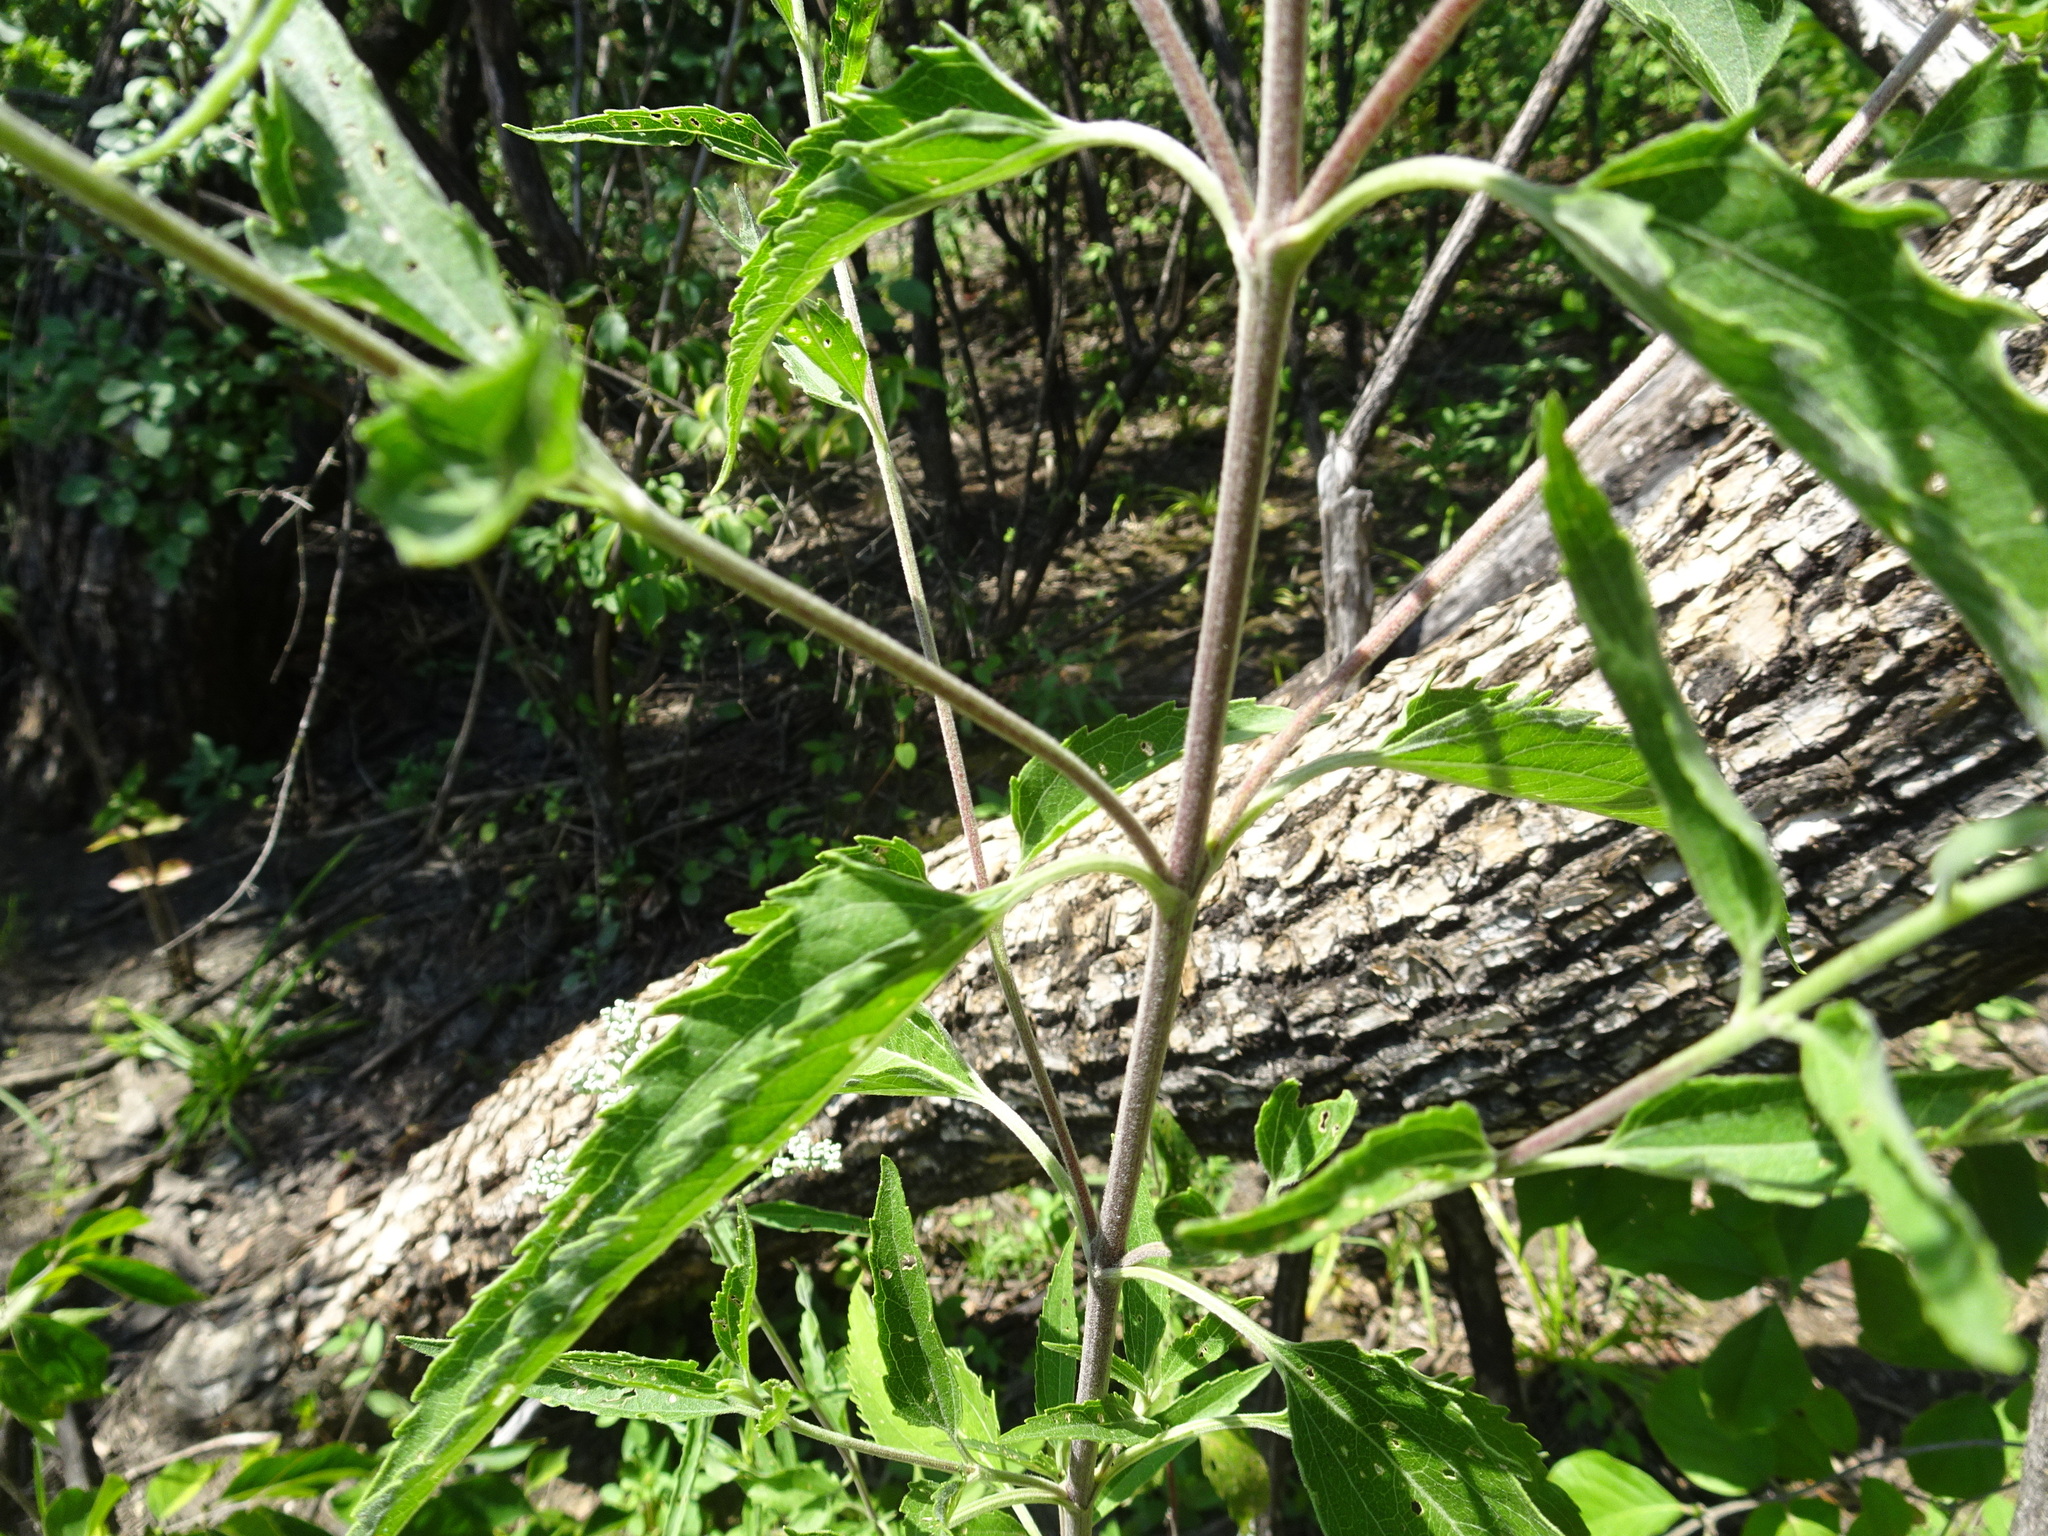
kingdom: Plantae
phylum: Tracheophyta
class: Magnoliopsida
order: Asterales
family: Asteraceae
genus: Eupatorium
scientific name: Eupatorium serotinum
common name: Late boneset
